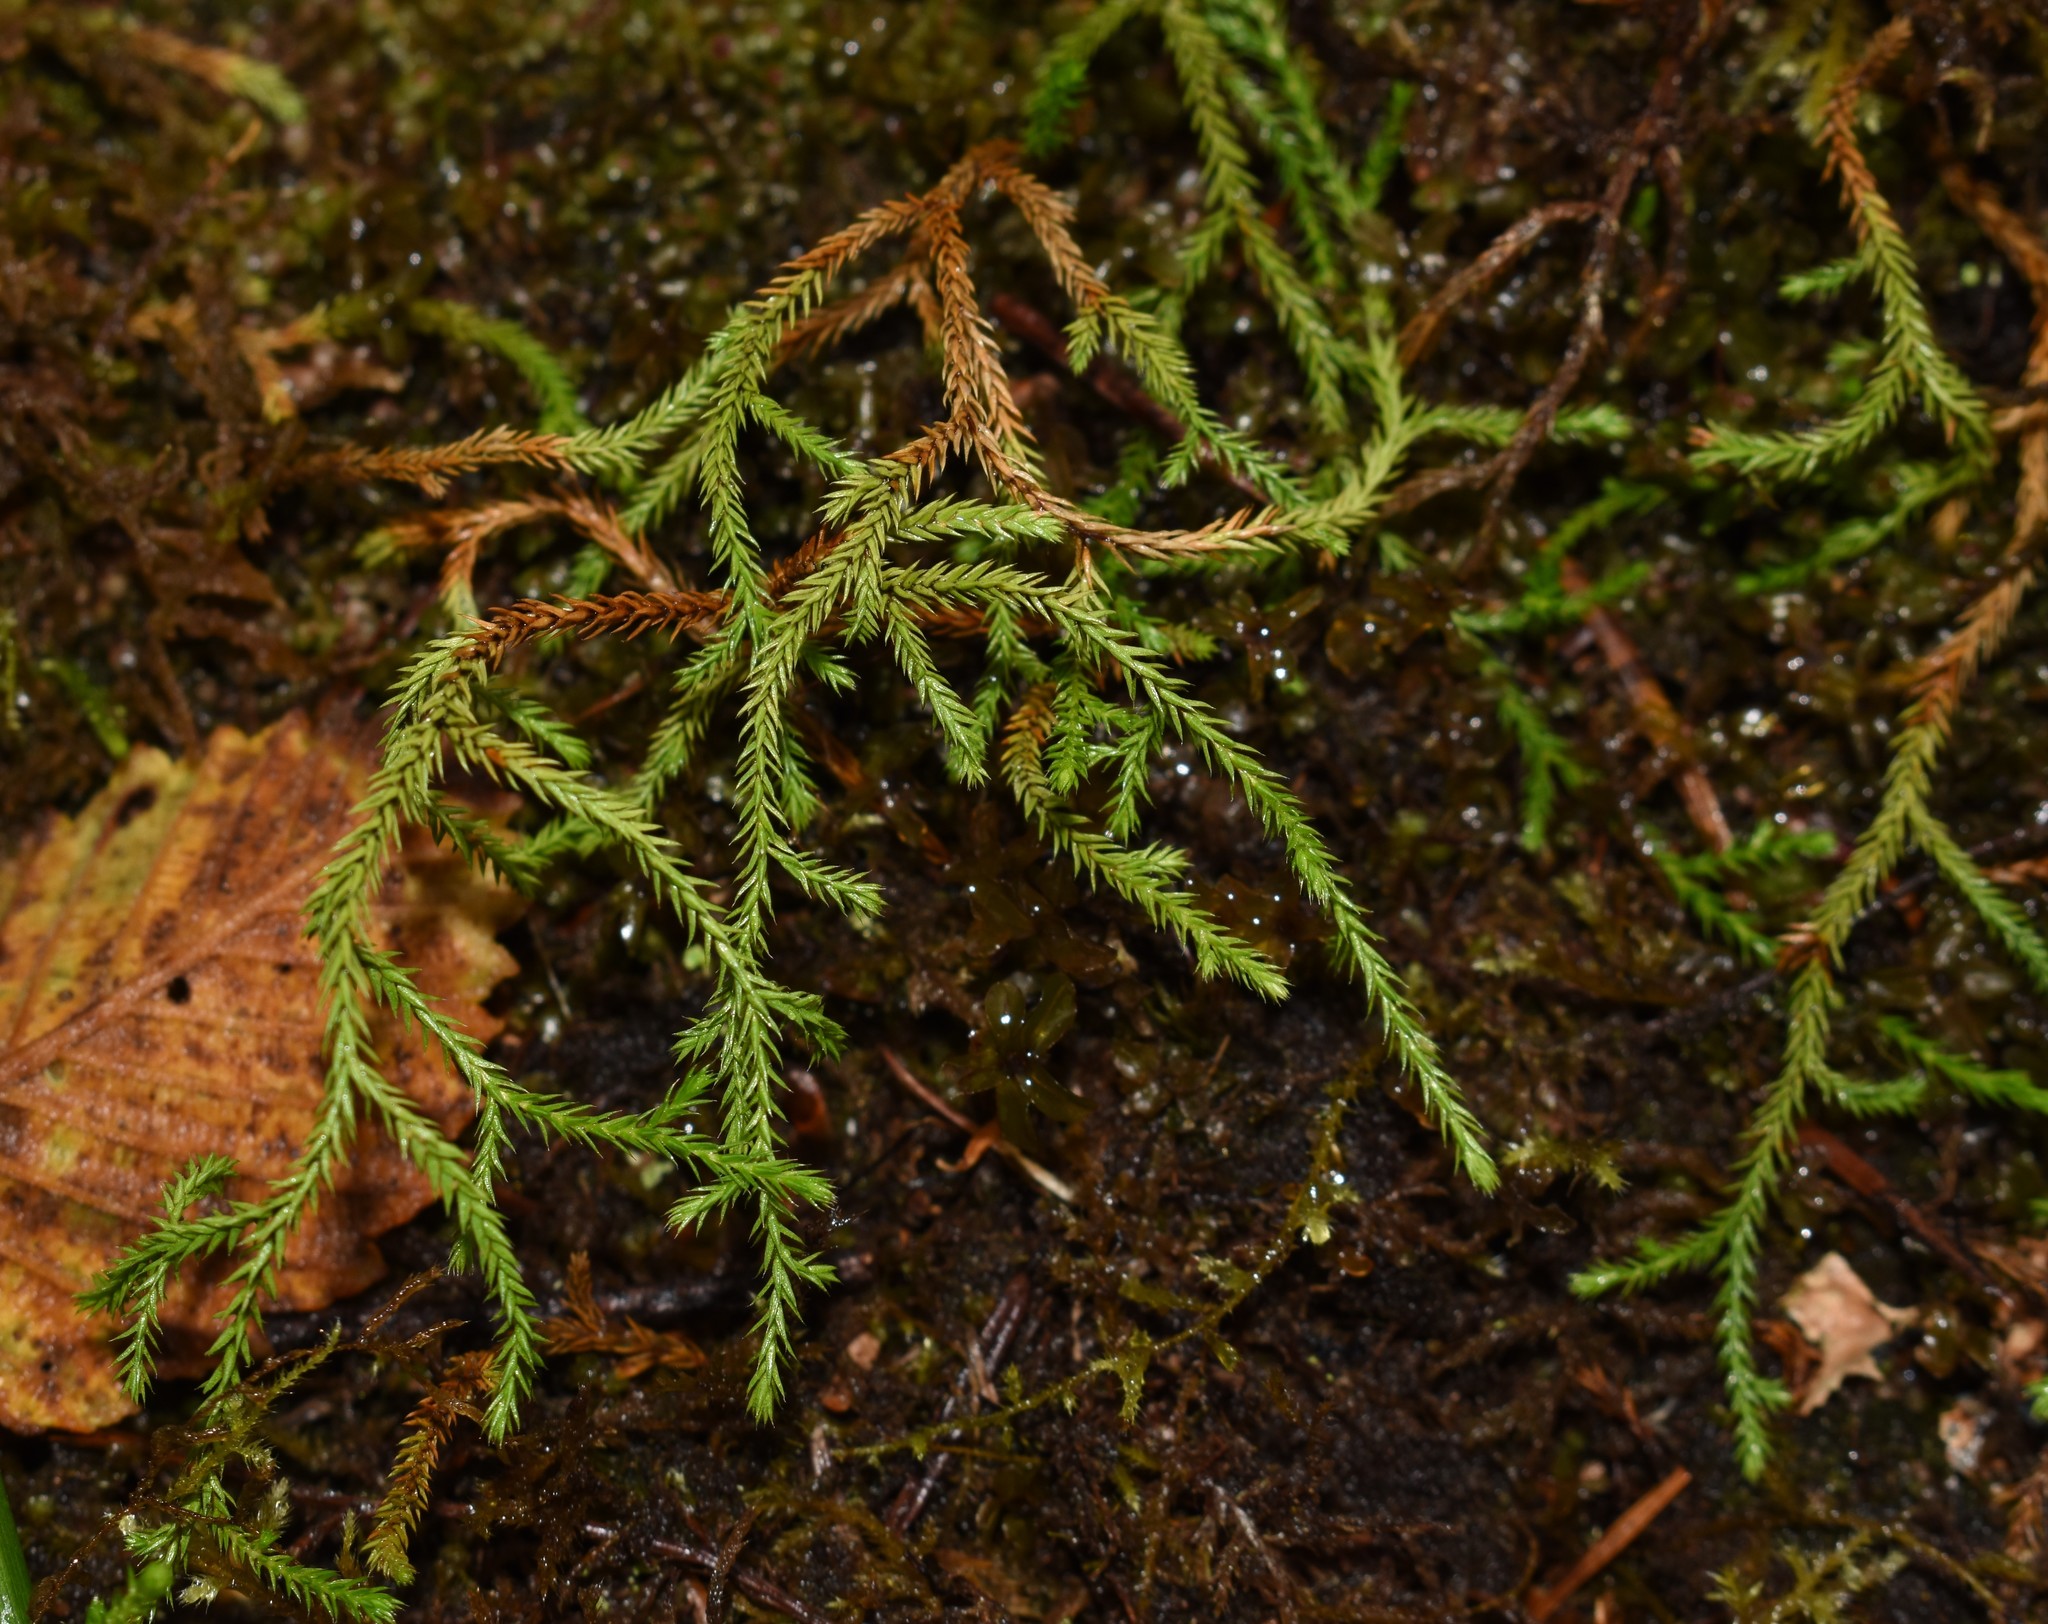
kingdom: Plantae
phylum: Tracheophyta
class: Lycopodiopsida
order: Selaginellales
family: Selaginellaceae
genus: Selaginella
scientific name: Selaginella oregana
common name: Oregon selaginella
